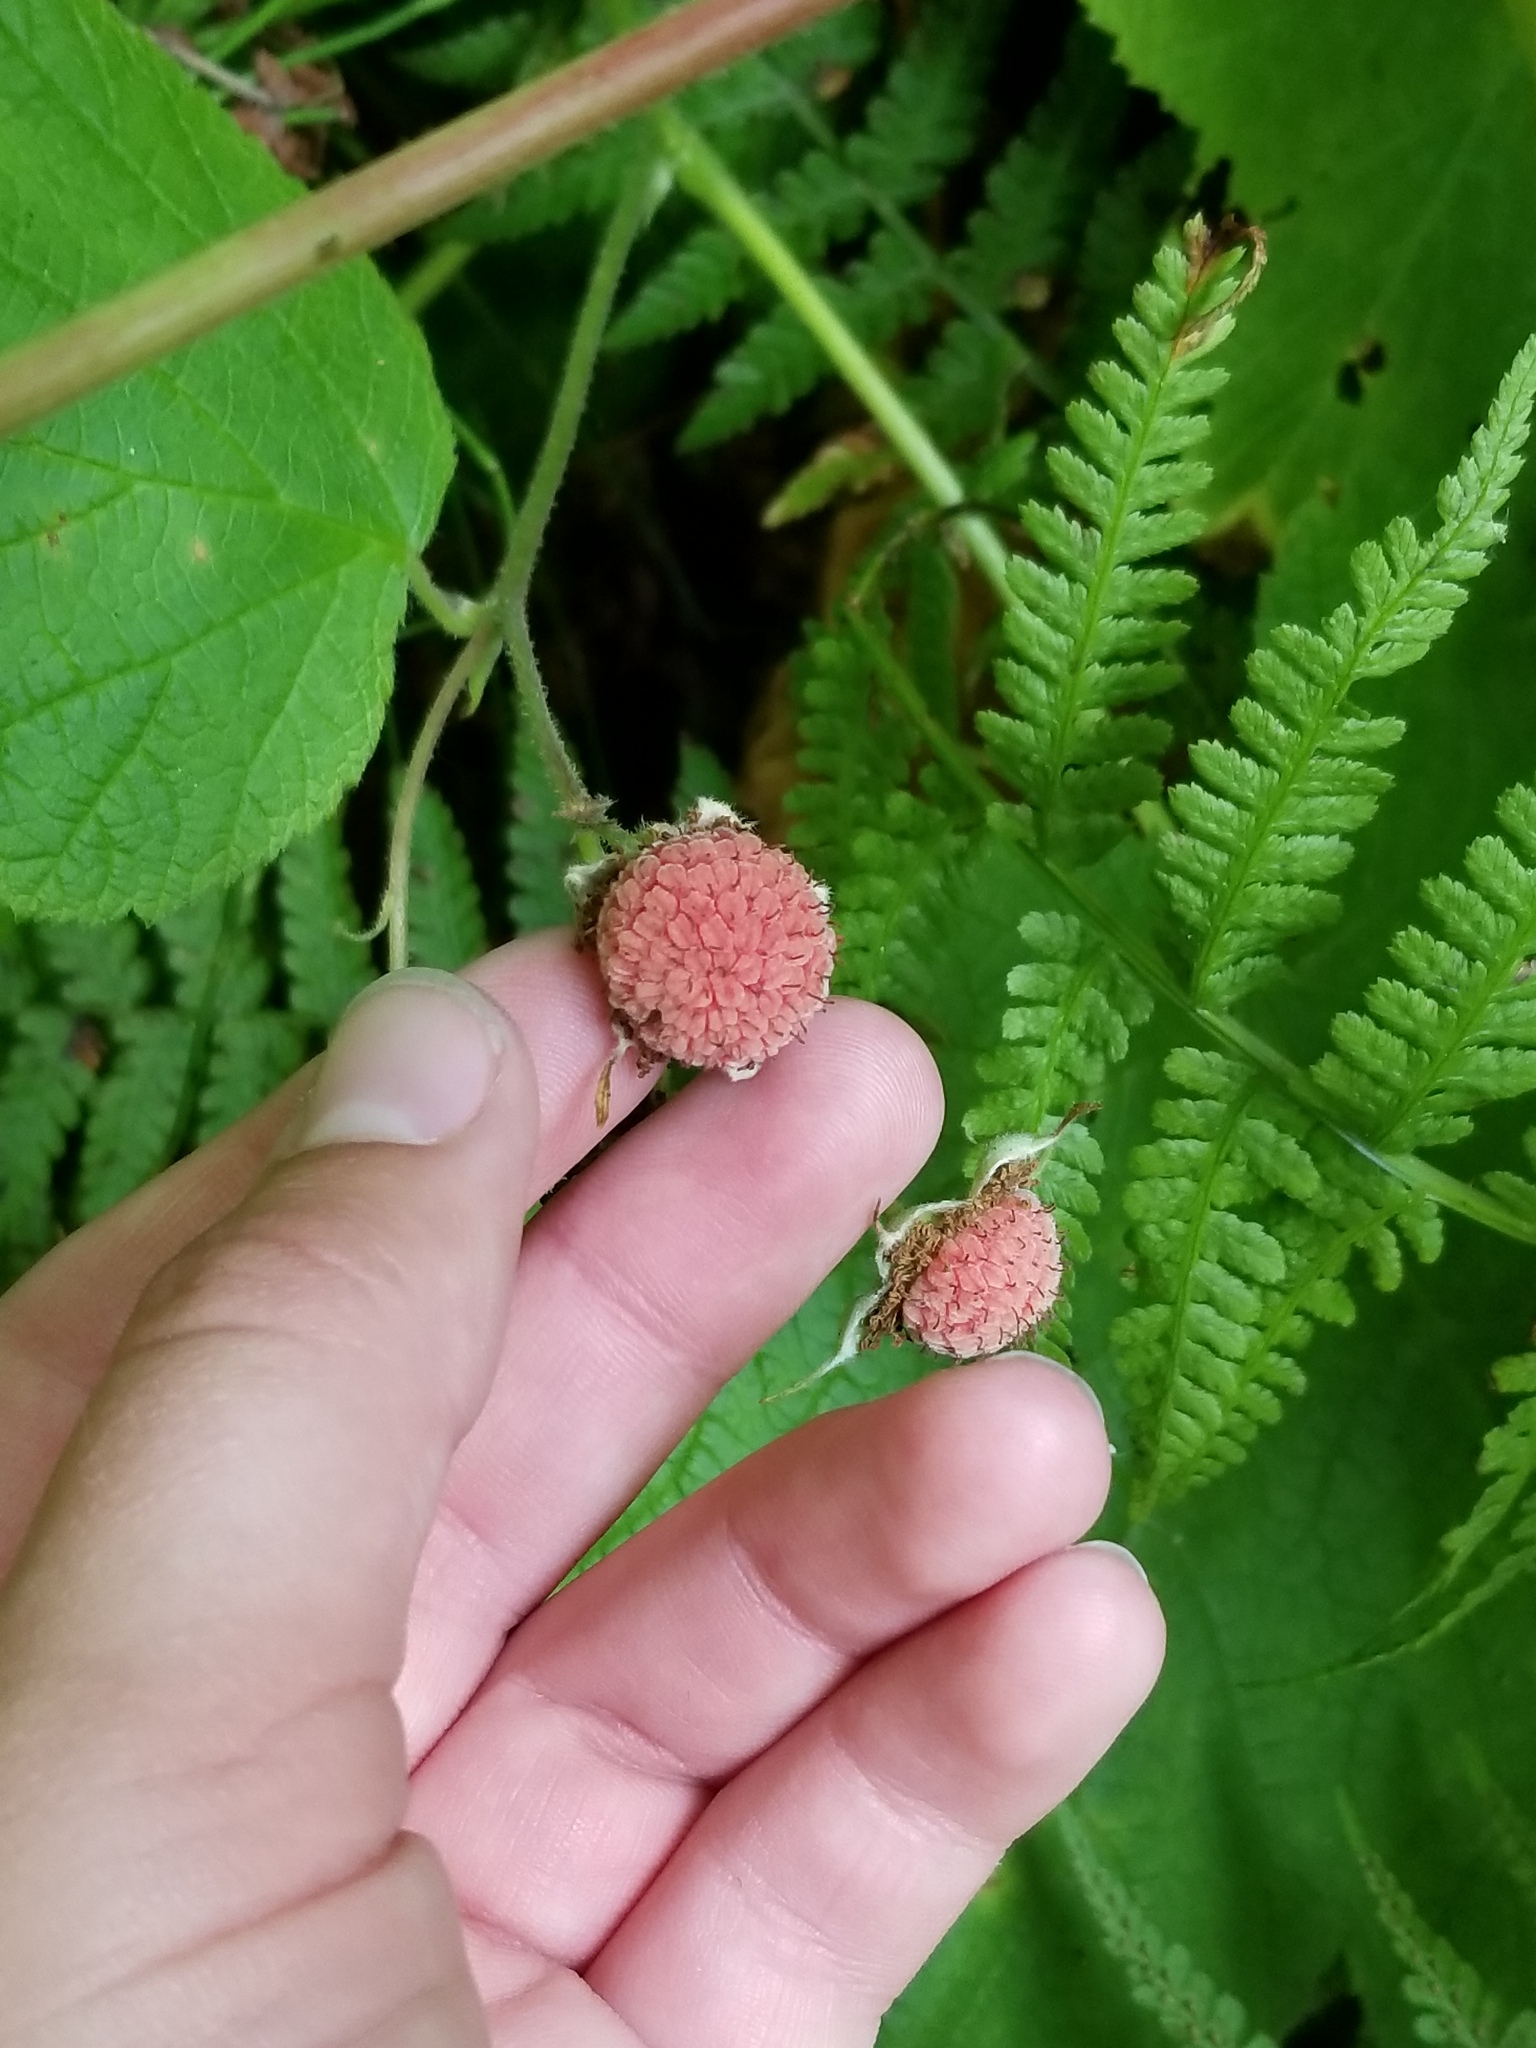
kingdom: Plantae
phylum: Tracheophyta
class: Magnoliopsida
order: Rosales
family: Rosaceae
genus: Rubus
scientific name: Rubus parviflorus
